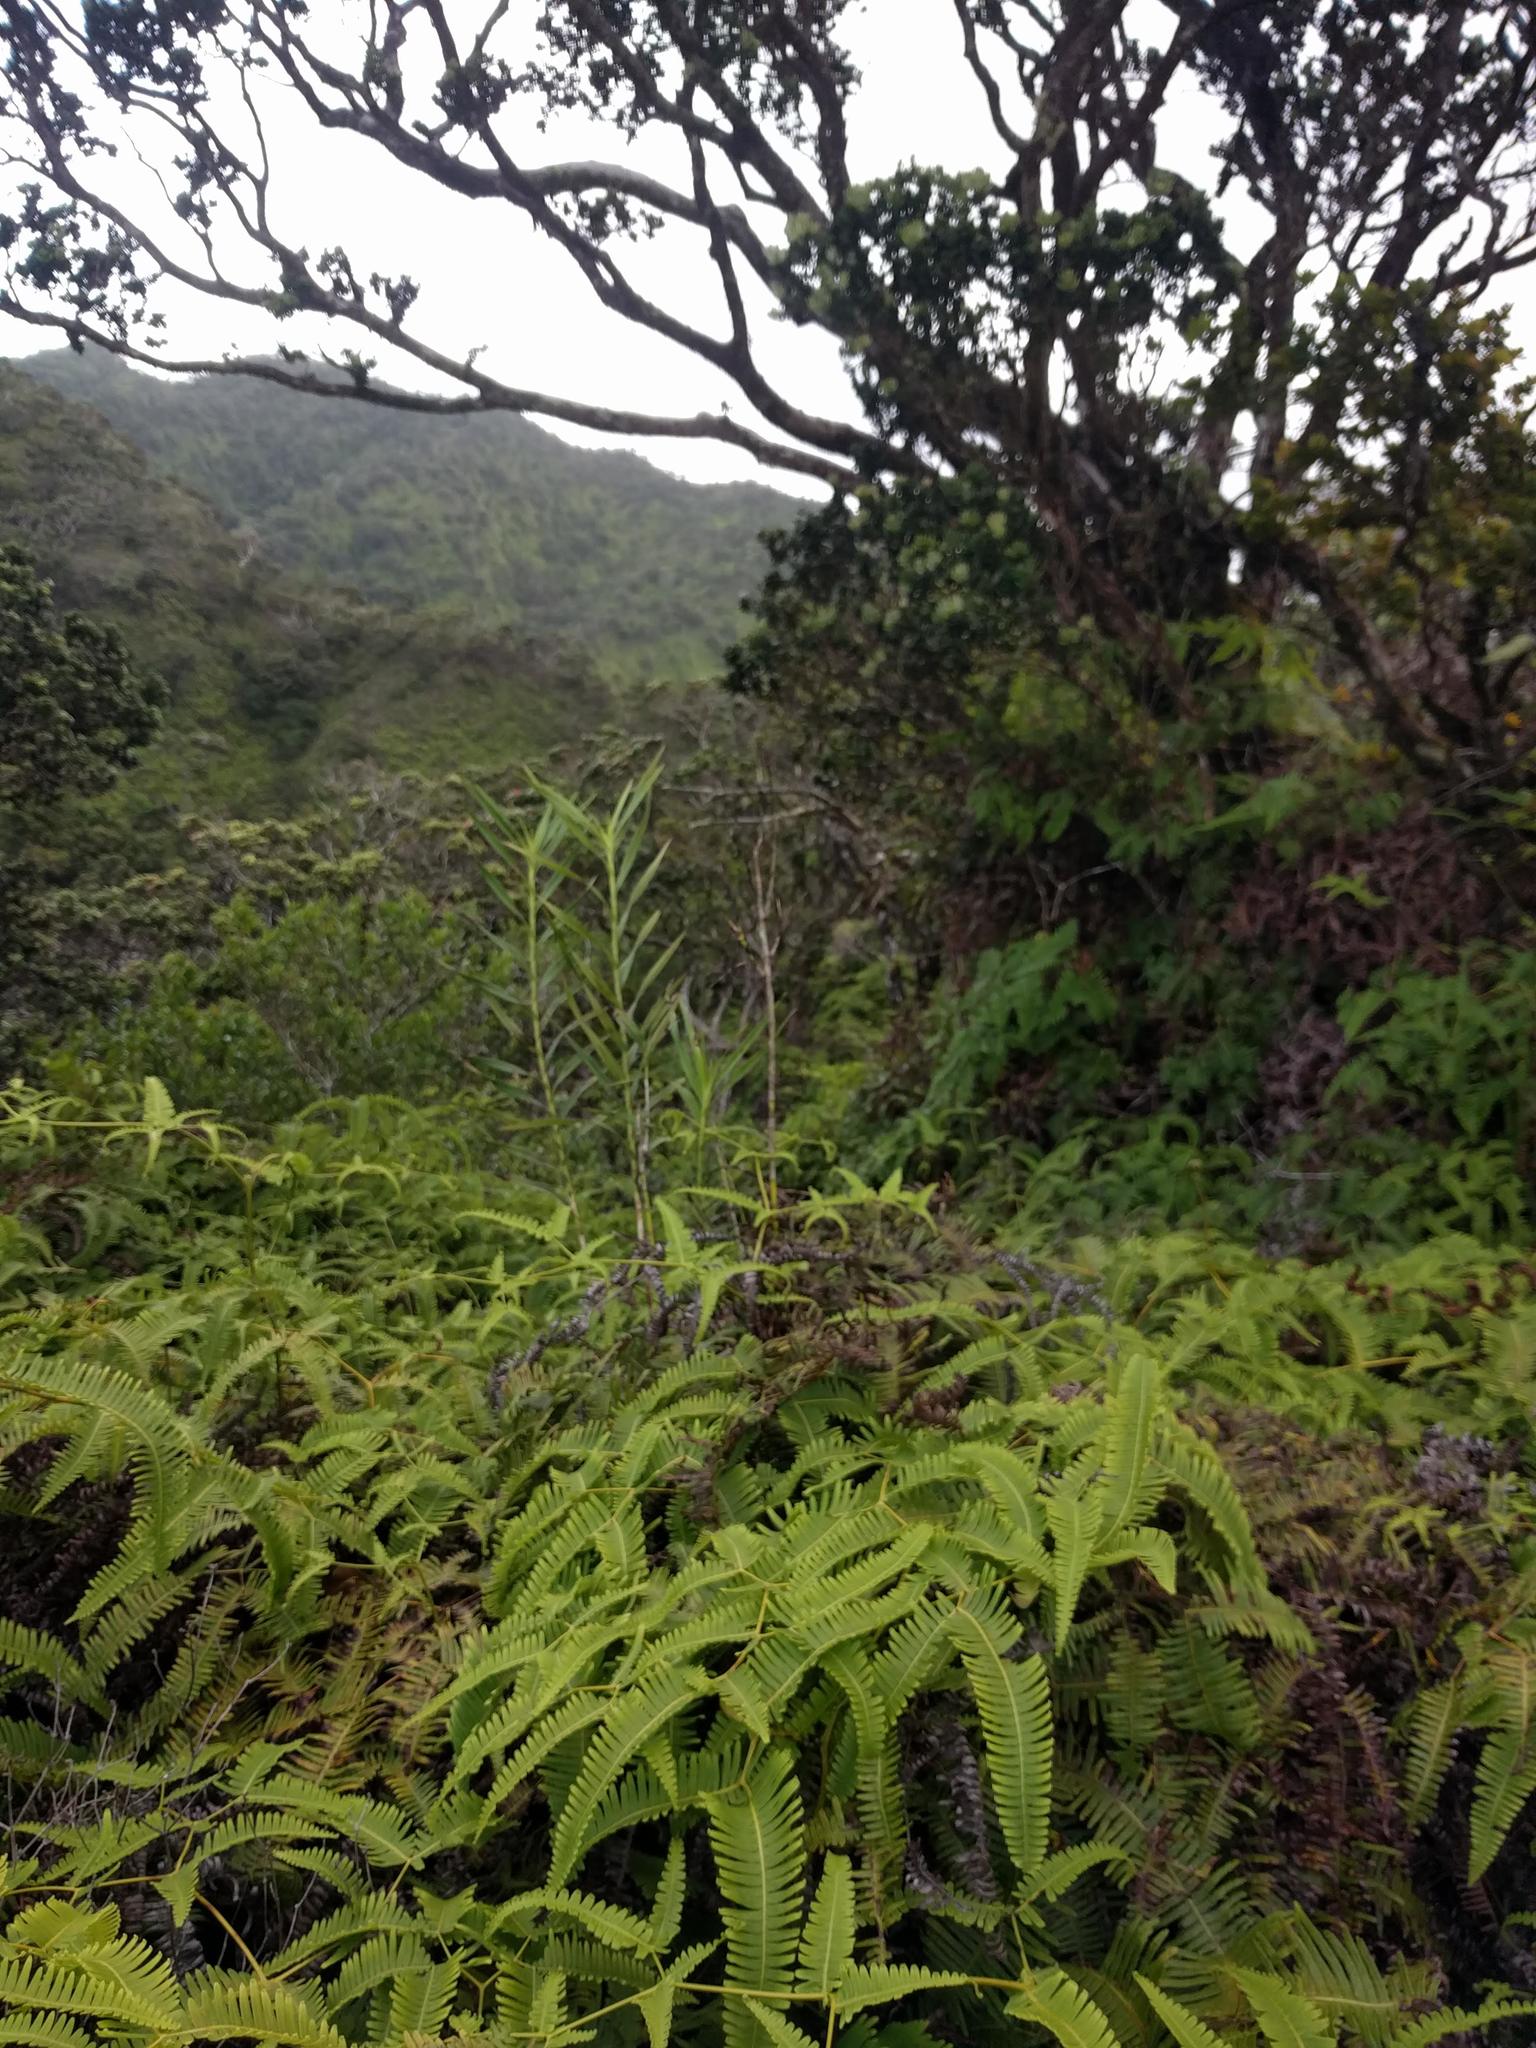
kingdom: Plantae
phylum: Tracheophyta
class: Liliopsida
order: Asparagales
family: Orchidaceae
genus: Arundina
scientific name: Arundina graminifolia
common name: Bamboo orchid
